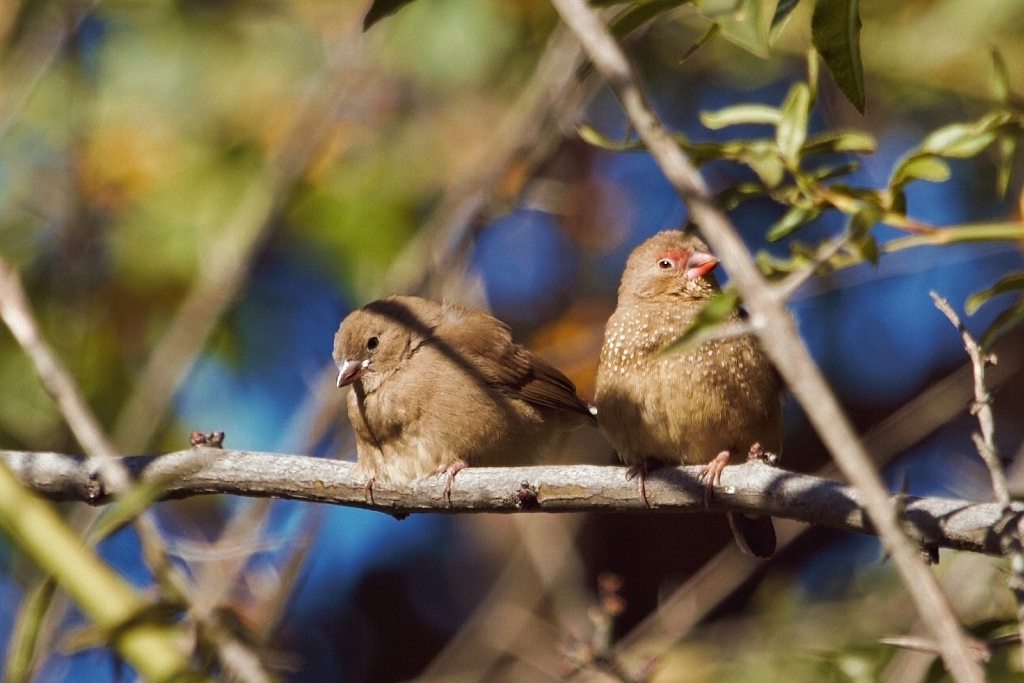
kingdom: Animalia
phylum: Chordata
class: Aves
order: Passeriformes
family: Estrildidae
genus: Lagonosticta
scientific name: Lagonosticta senegala
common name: Red-billed firefinch
